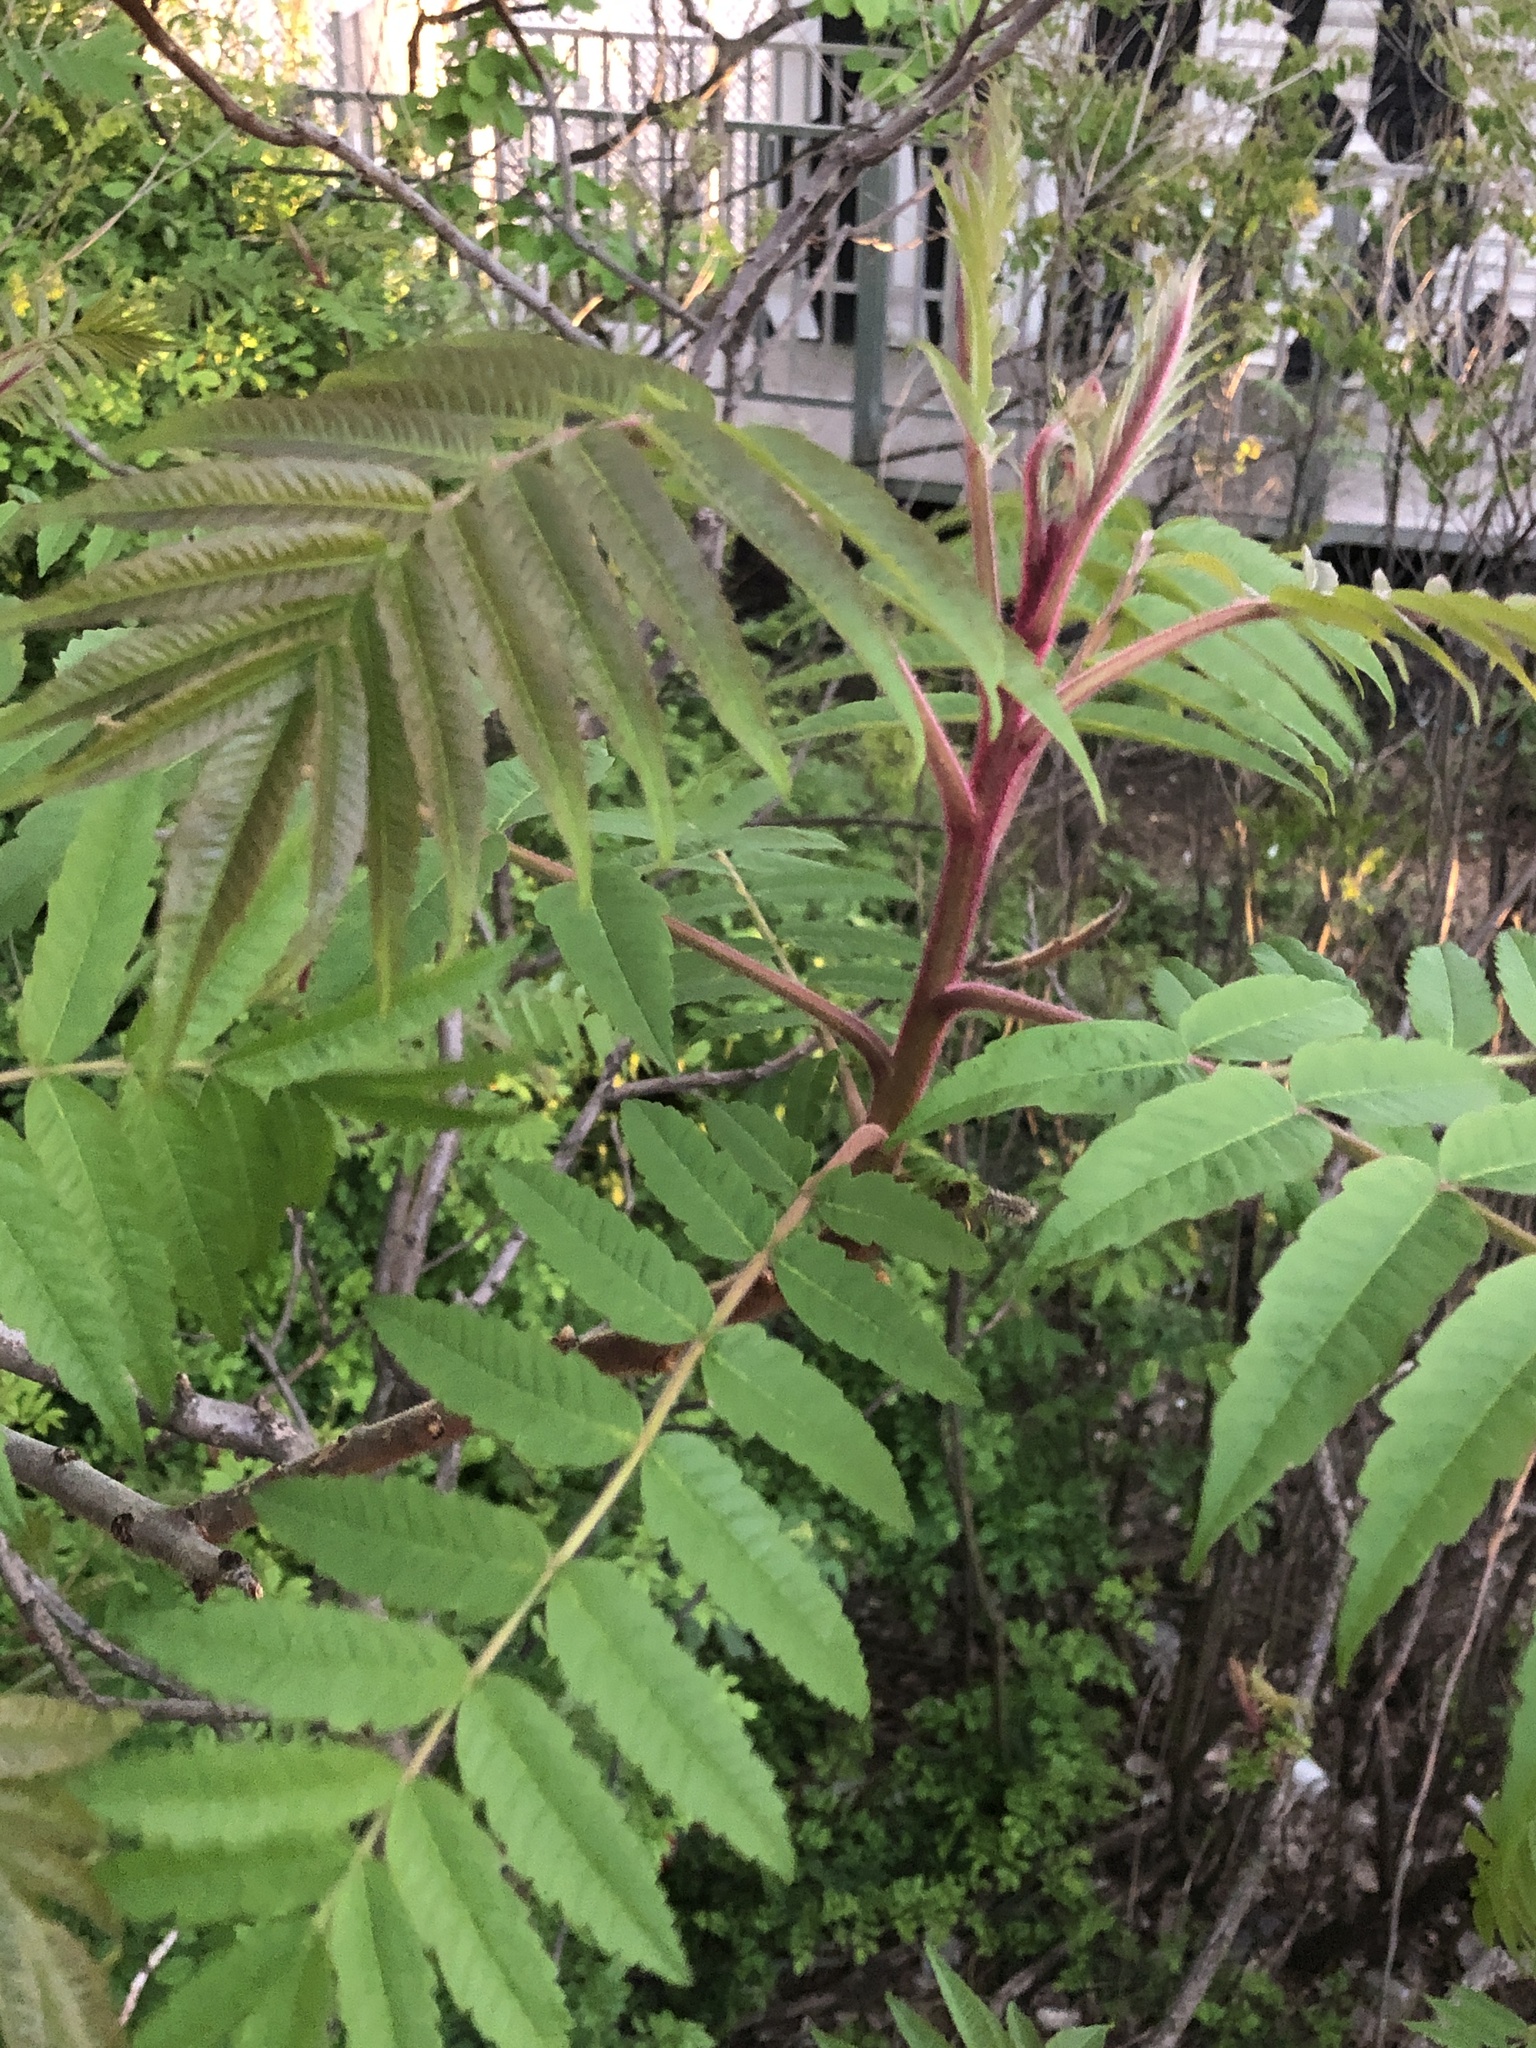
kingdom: Plantae
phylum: Tracheophyta
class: Magnoliopsida
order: Sapindales
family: Anacardiaceae
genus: Rhus
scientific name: Rhus typhina
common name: Staghorn sumac
